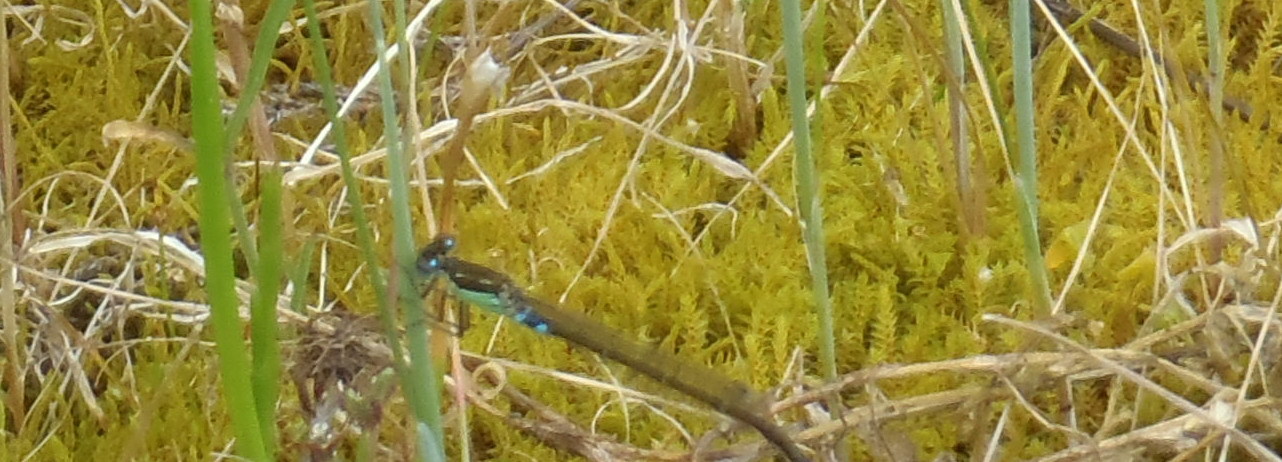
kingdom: Animalia
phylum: Arthropoda
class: Insecta
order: Odonata
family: Coenagrionidae
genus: Ischnura
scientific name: Ischnura senegalensis
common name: Tropical bluetail
